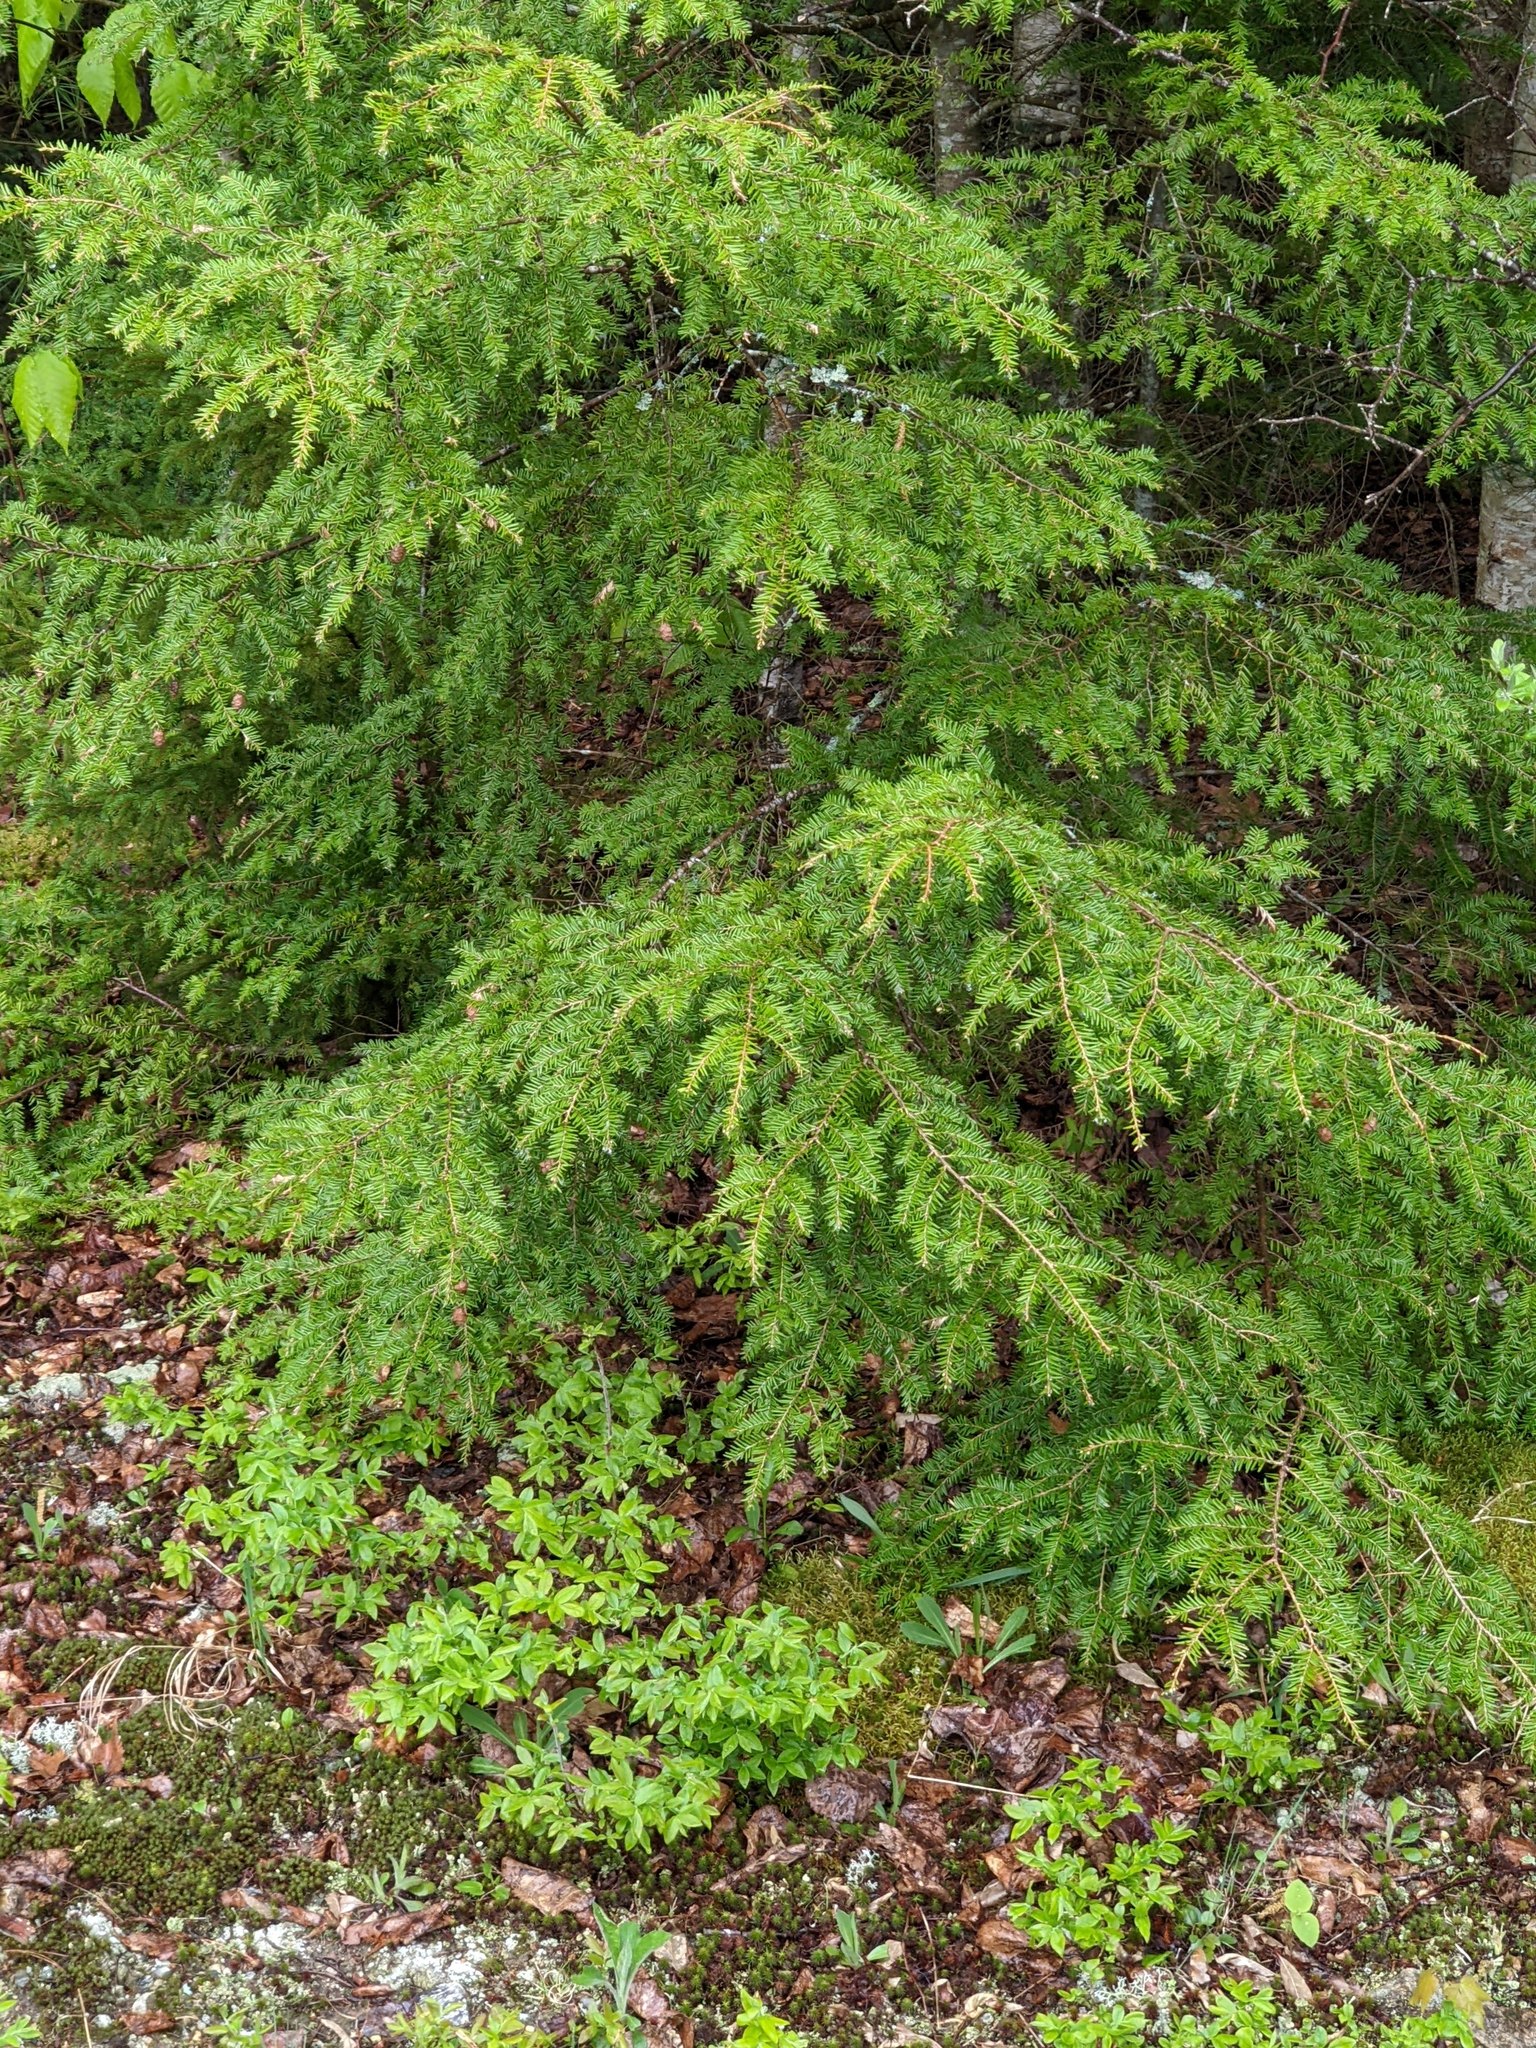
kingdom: Plantae
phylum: Tracheophyta
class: Pinopsida
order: Pinales
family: Pinaceae
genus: Tsuga
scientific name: Tsuga canadensis
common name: Eastern hemlock
